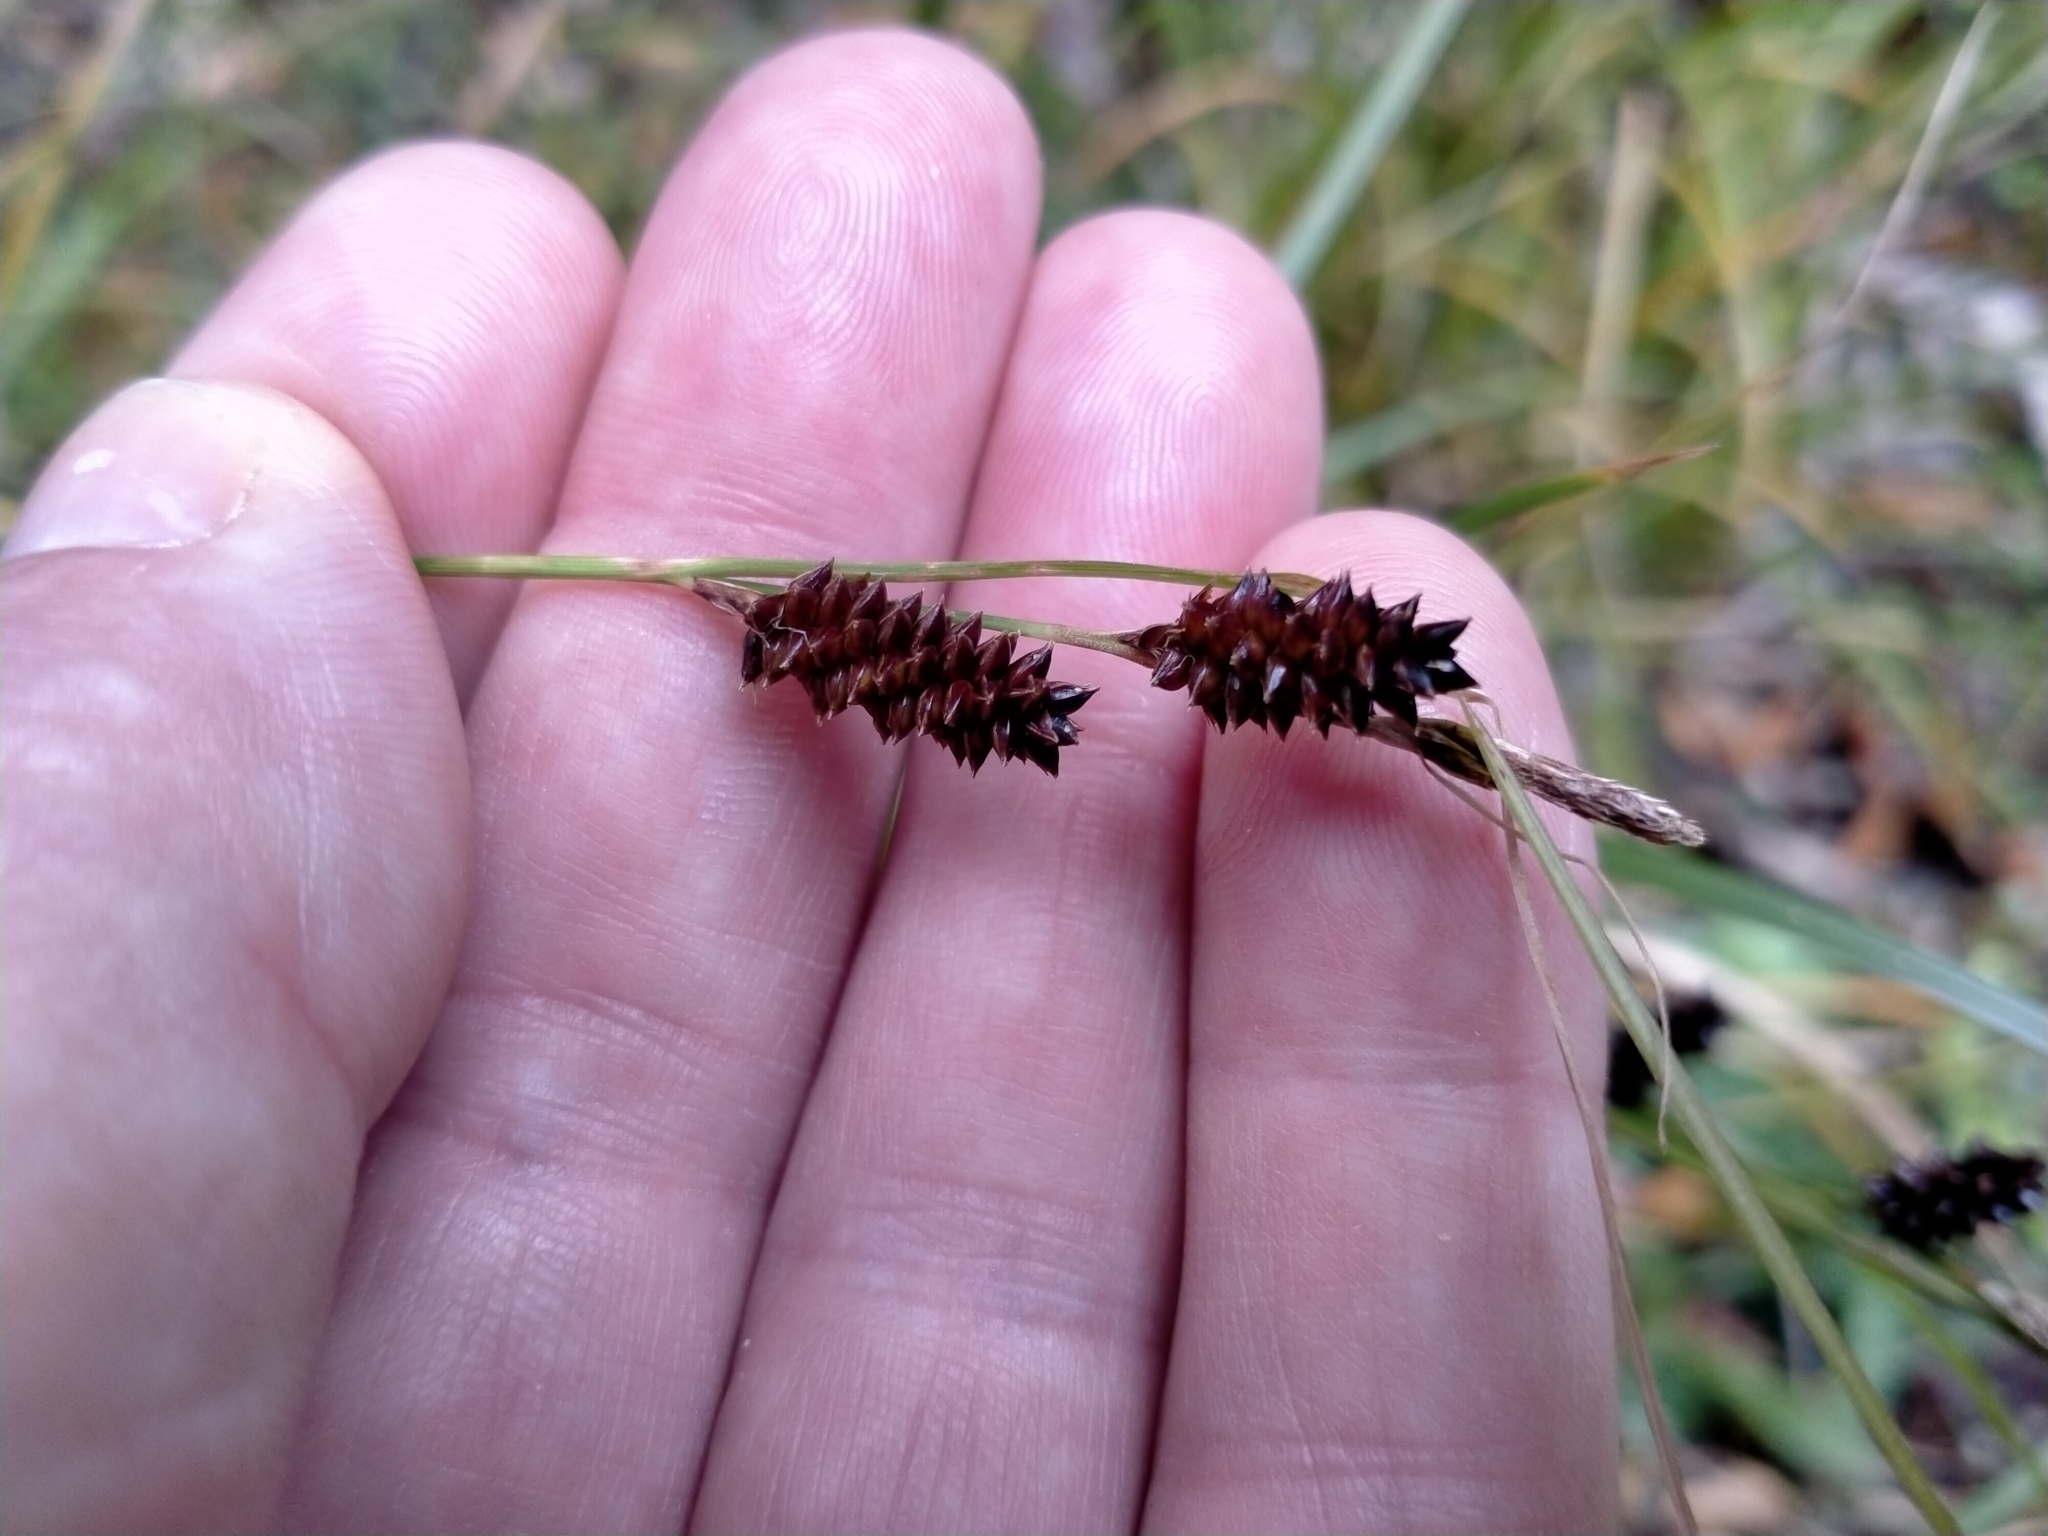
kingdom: Plantae
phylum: Tracheophyta
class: Liliopsida
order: Poales
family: Cyperaceae
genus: Carex
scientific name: Carex dissita
